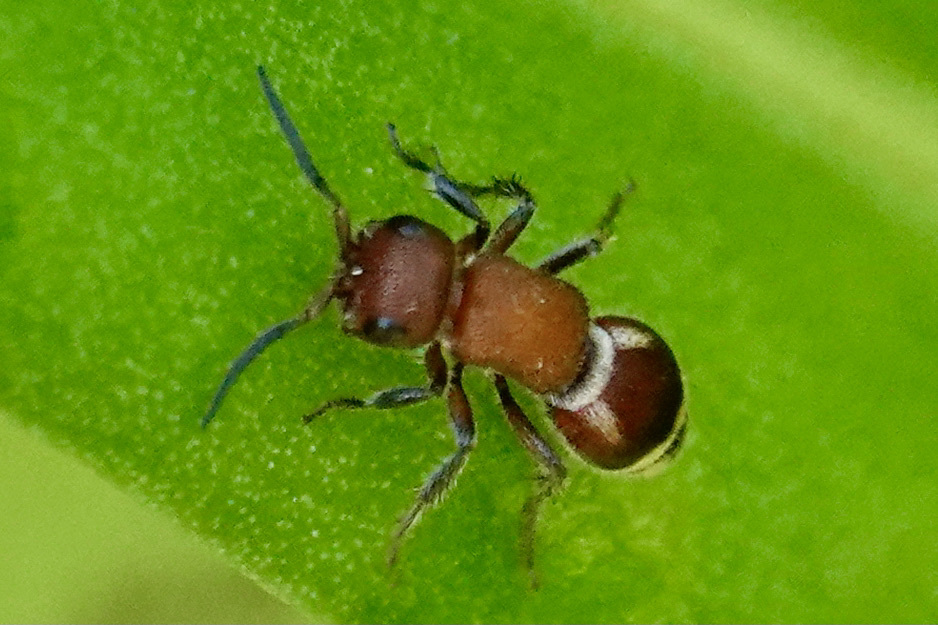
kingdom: Animalia
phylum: Arthropoda
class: Insecta
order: Hymenoptera
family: Mutillidae
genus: Timulla
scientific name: Timulla
